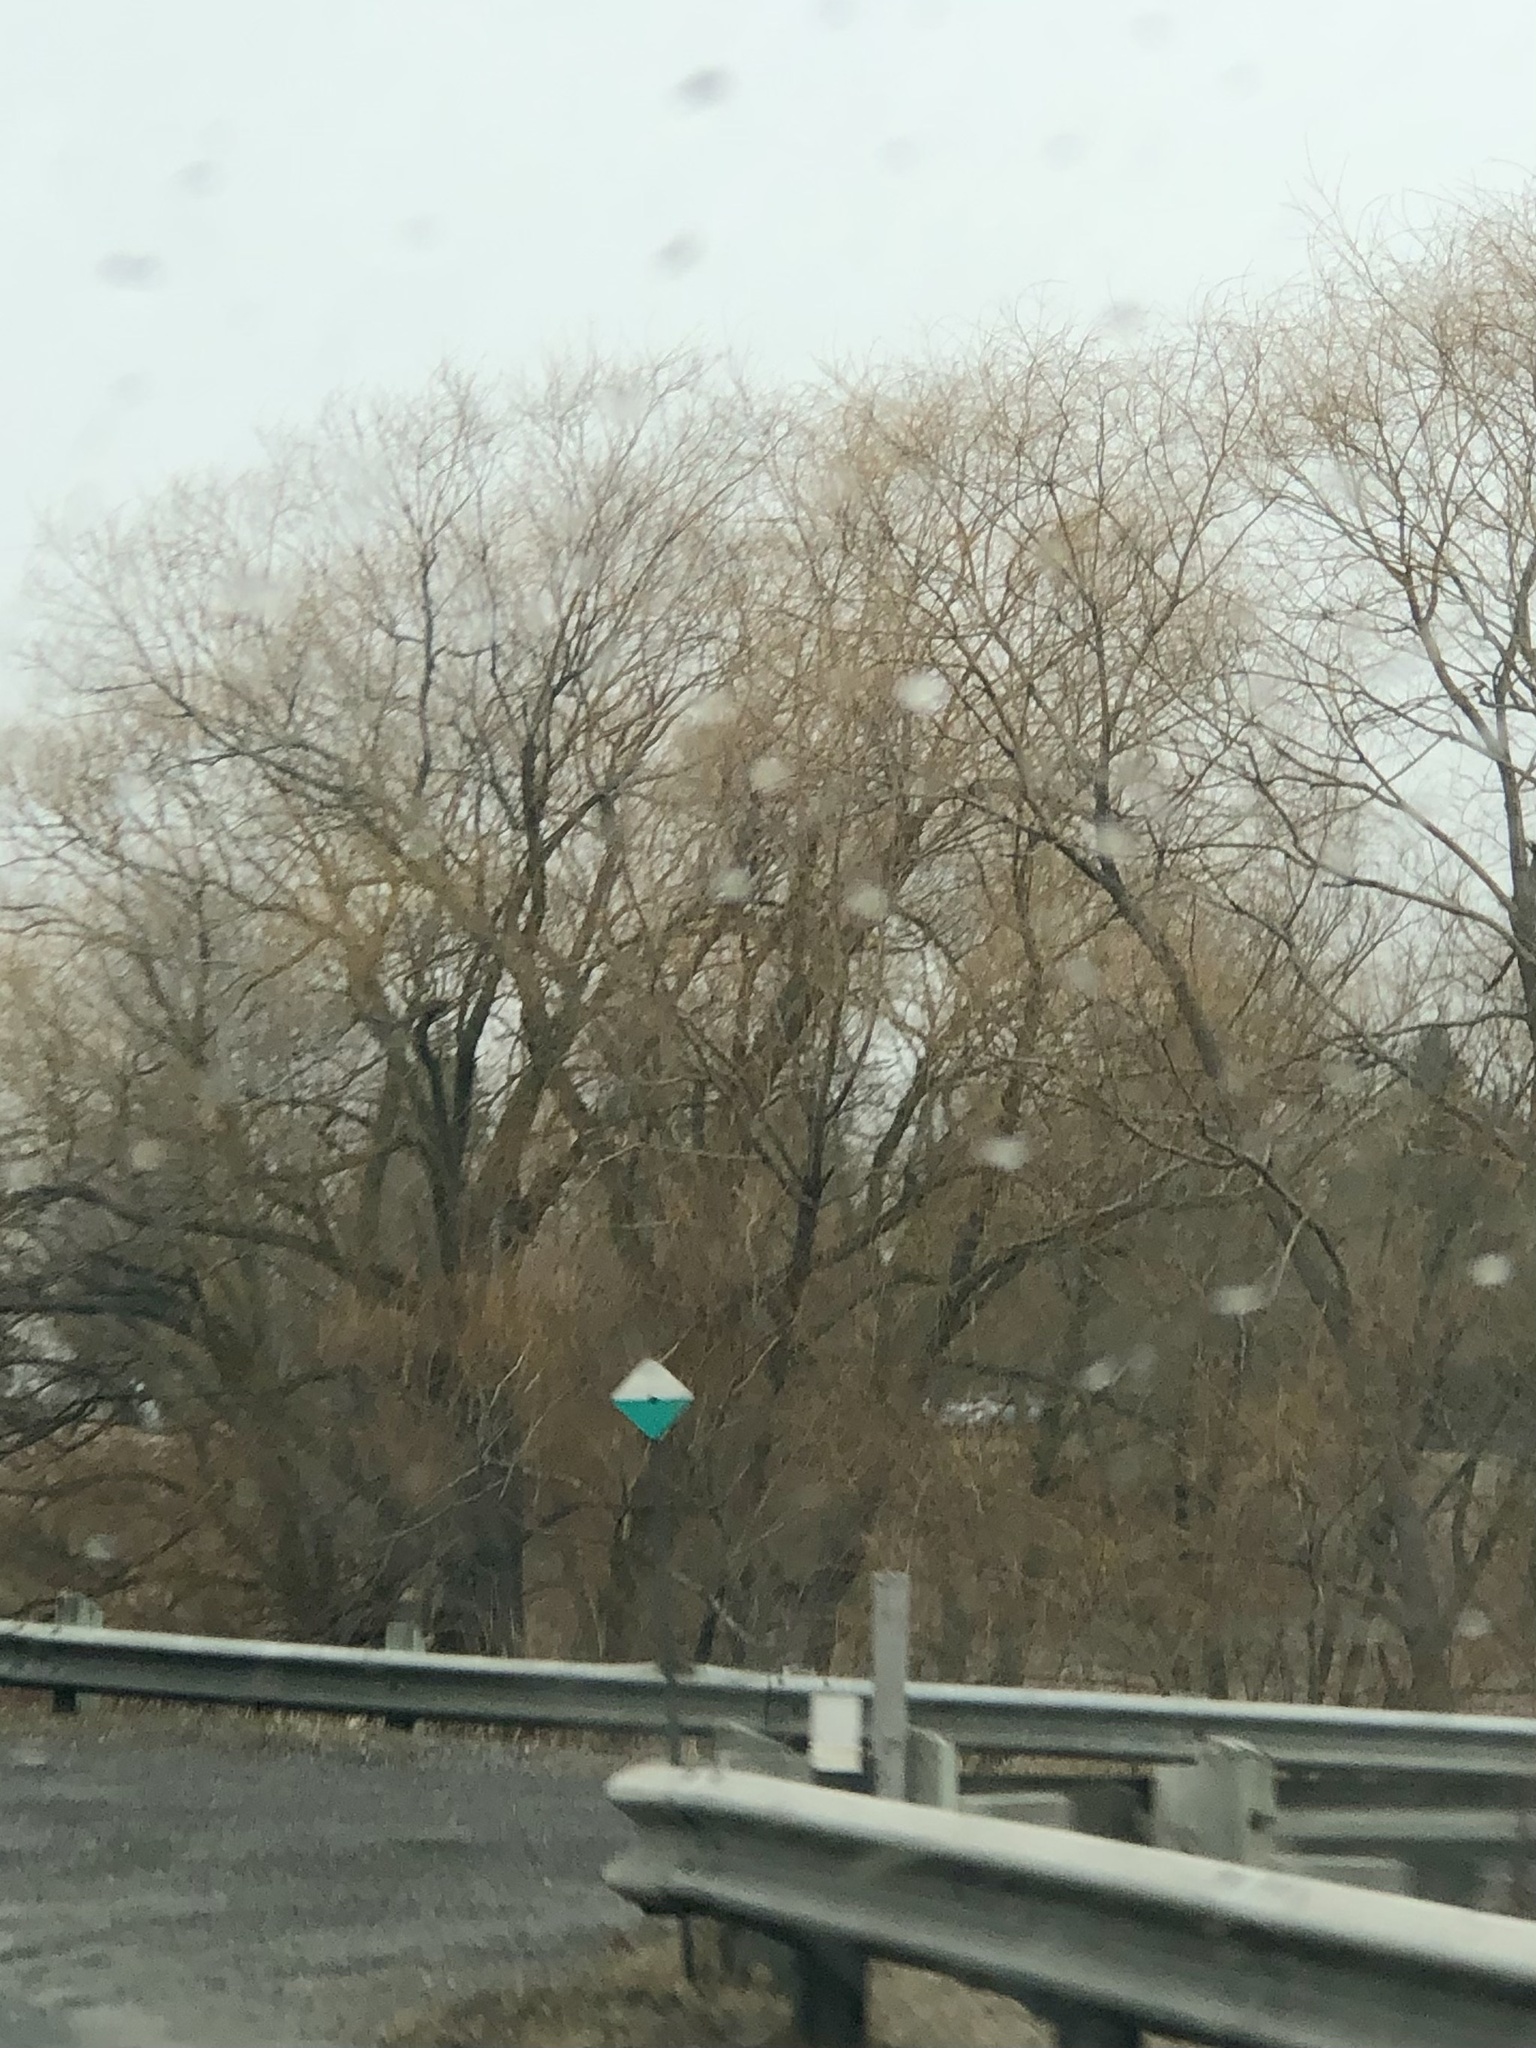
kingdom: Plantae
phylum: Tracheophyta
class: Magnoliopsida
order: Malpighiales
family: Salicaceae
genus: Salix
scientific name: Salix pendulina
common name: Wisconsin weeping willow
